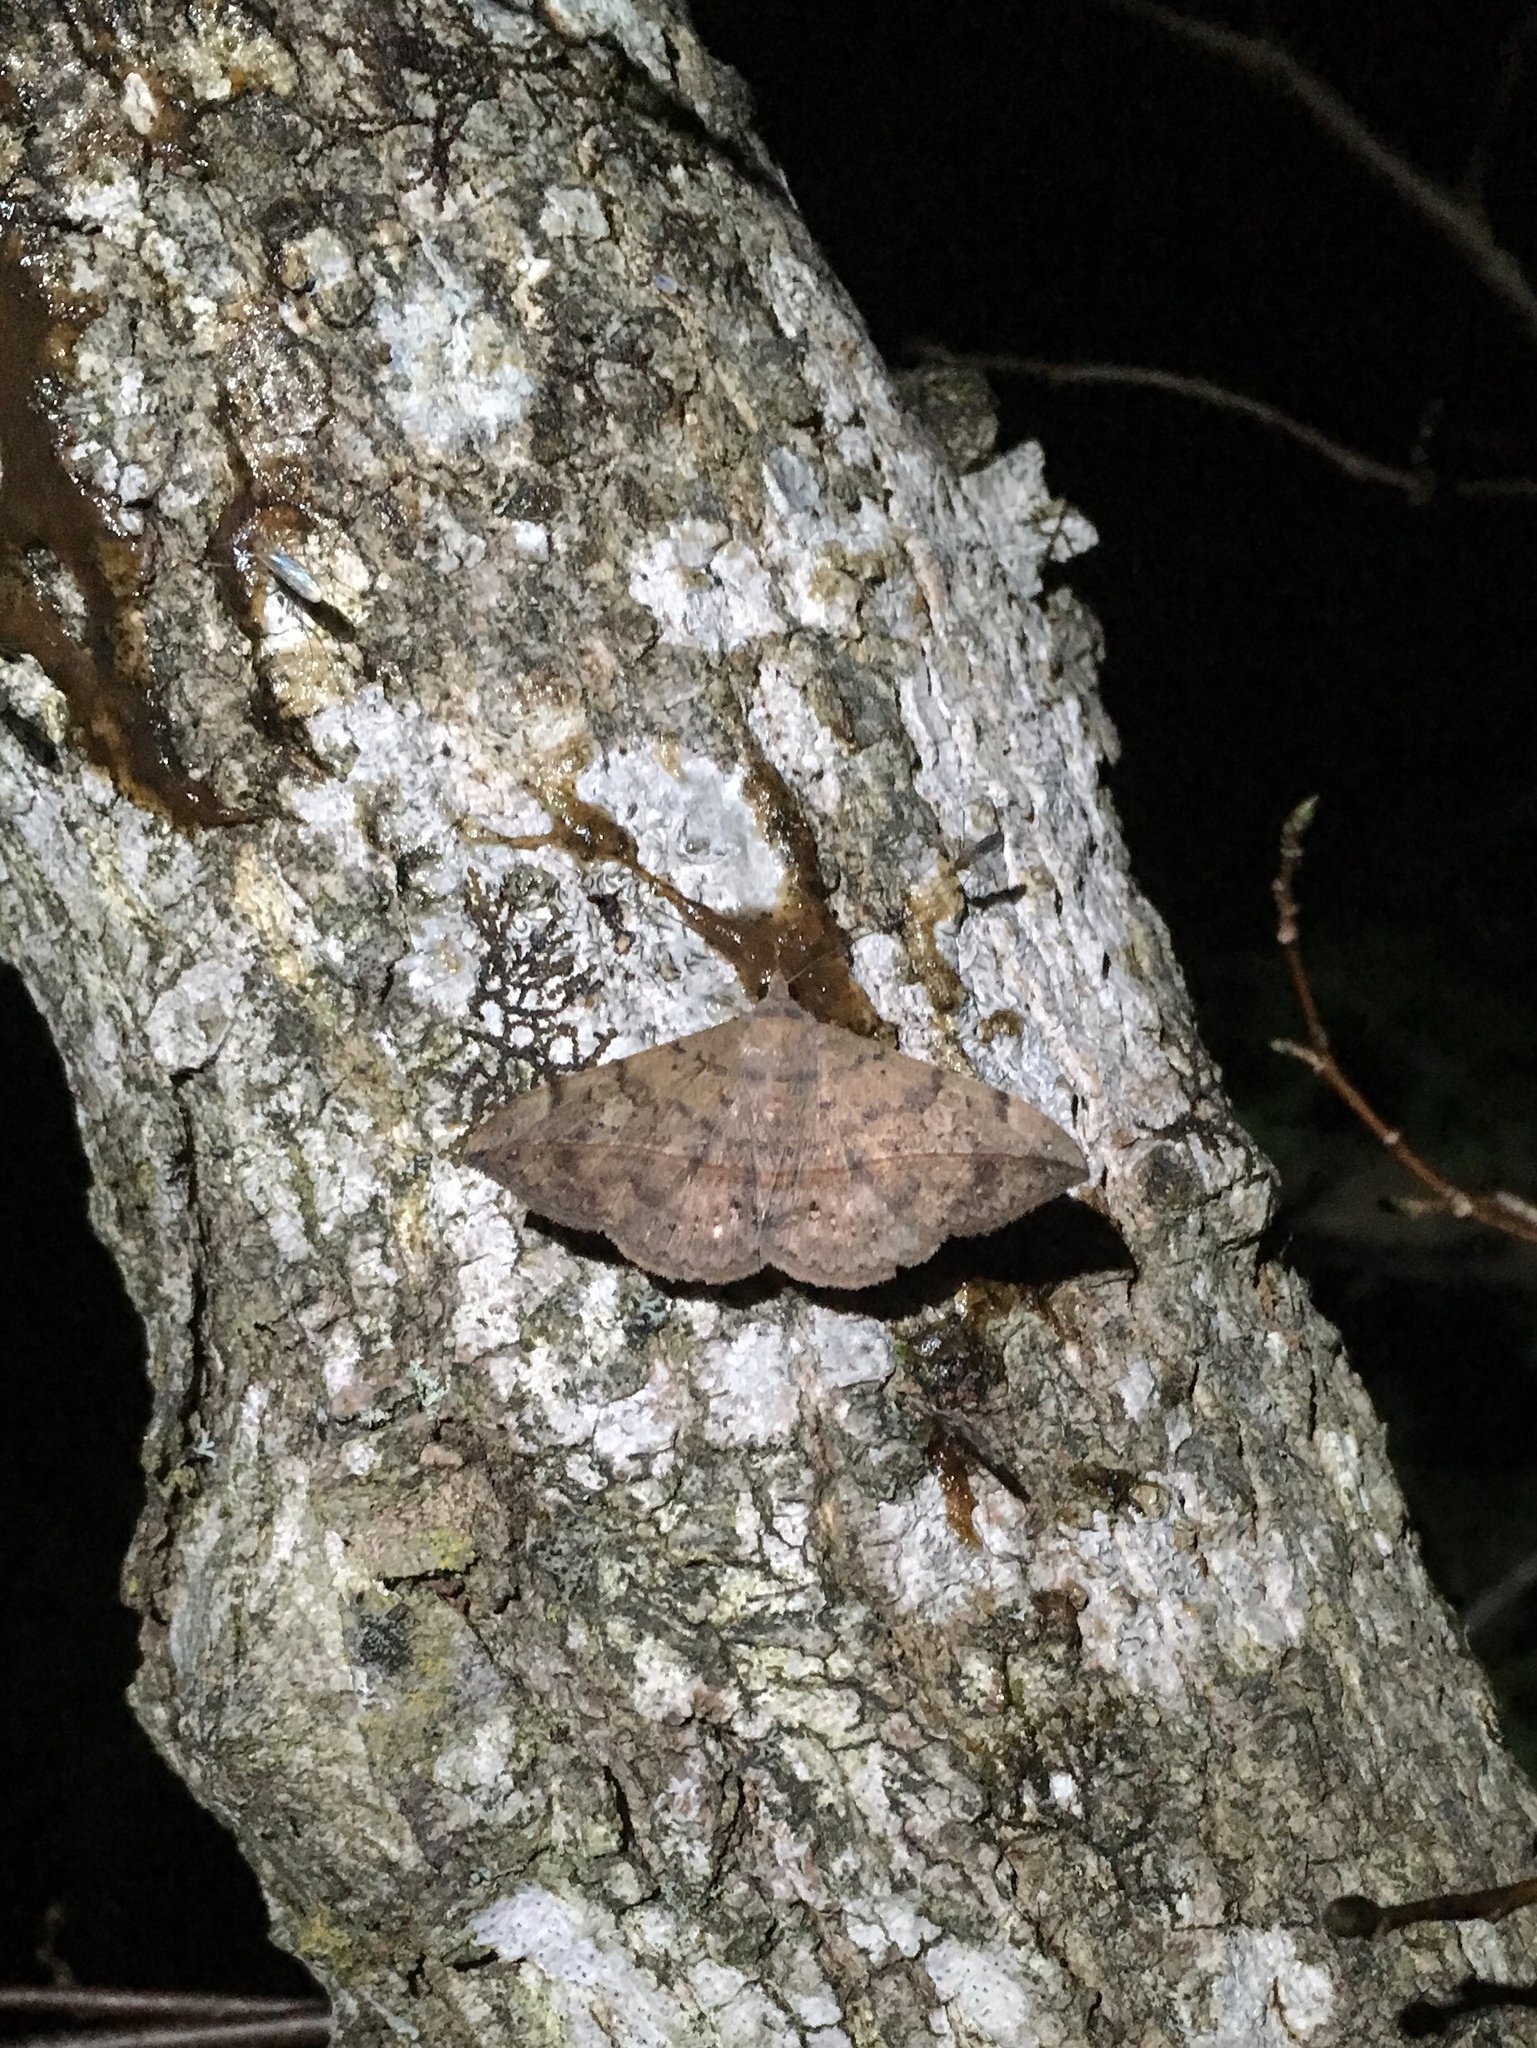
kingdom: Animalia
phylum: Arthropoda
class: Insecta
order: Lepidoptera
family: Erebidae
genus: Anticarsia
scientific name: Anticarsia gemmatalis
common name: Cutworm moth
